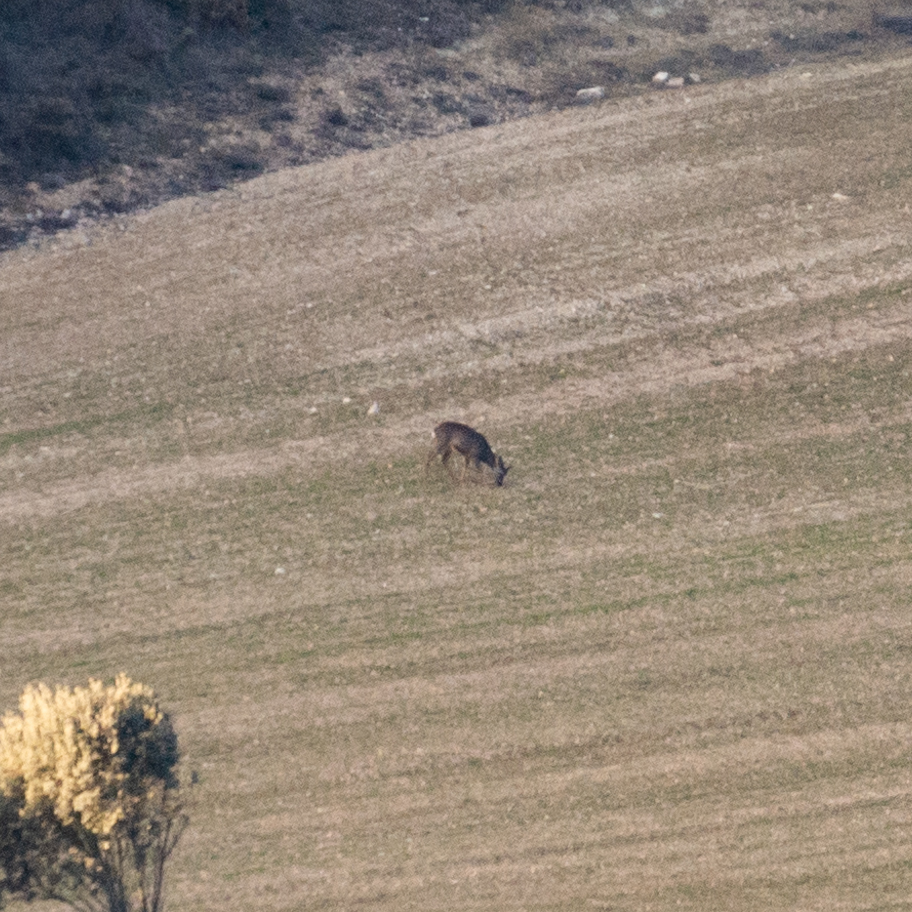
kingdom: Animalia
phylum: Chordata
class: Mammalia
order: Artiodactyla
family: Cervidae
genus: Capreolus
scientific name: Capreolus capreolus
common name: Western roe deer
